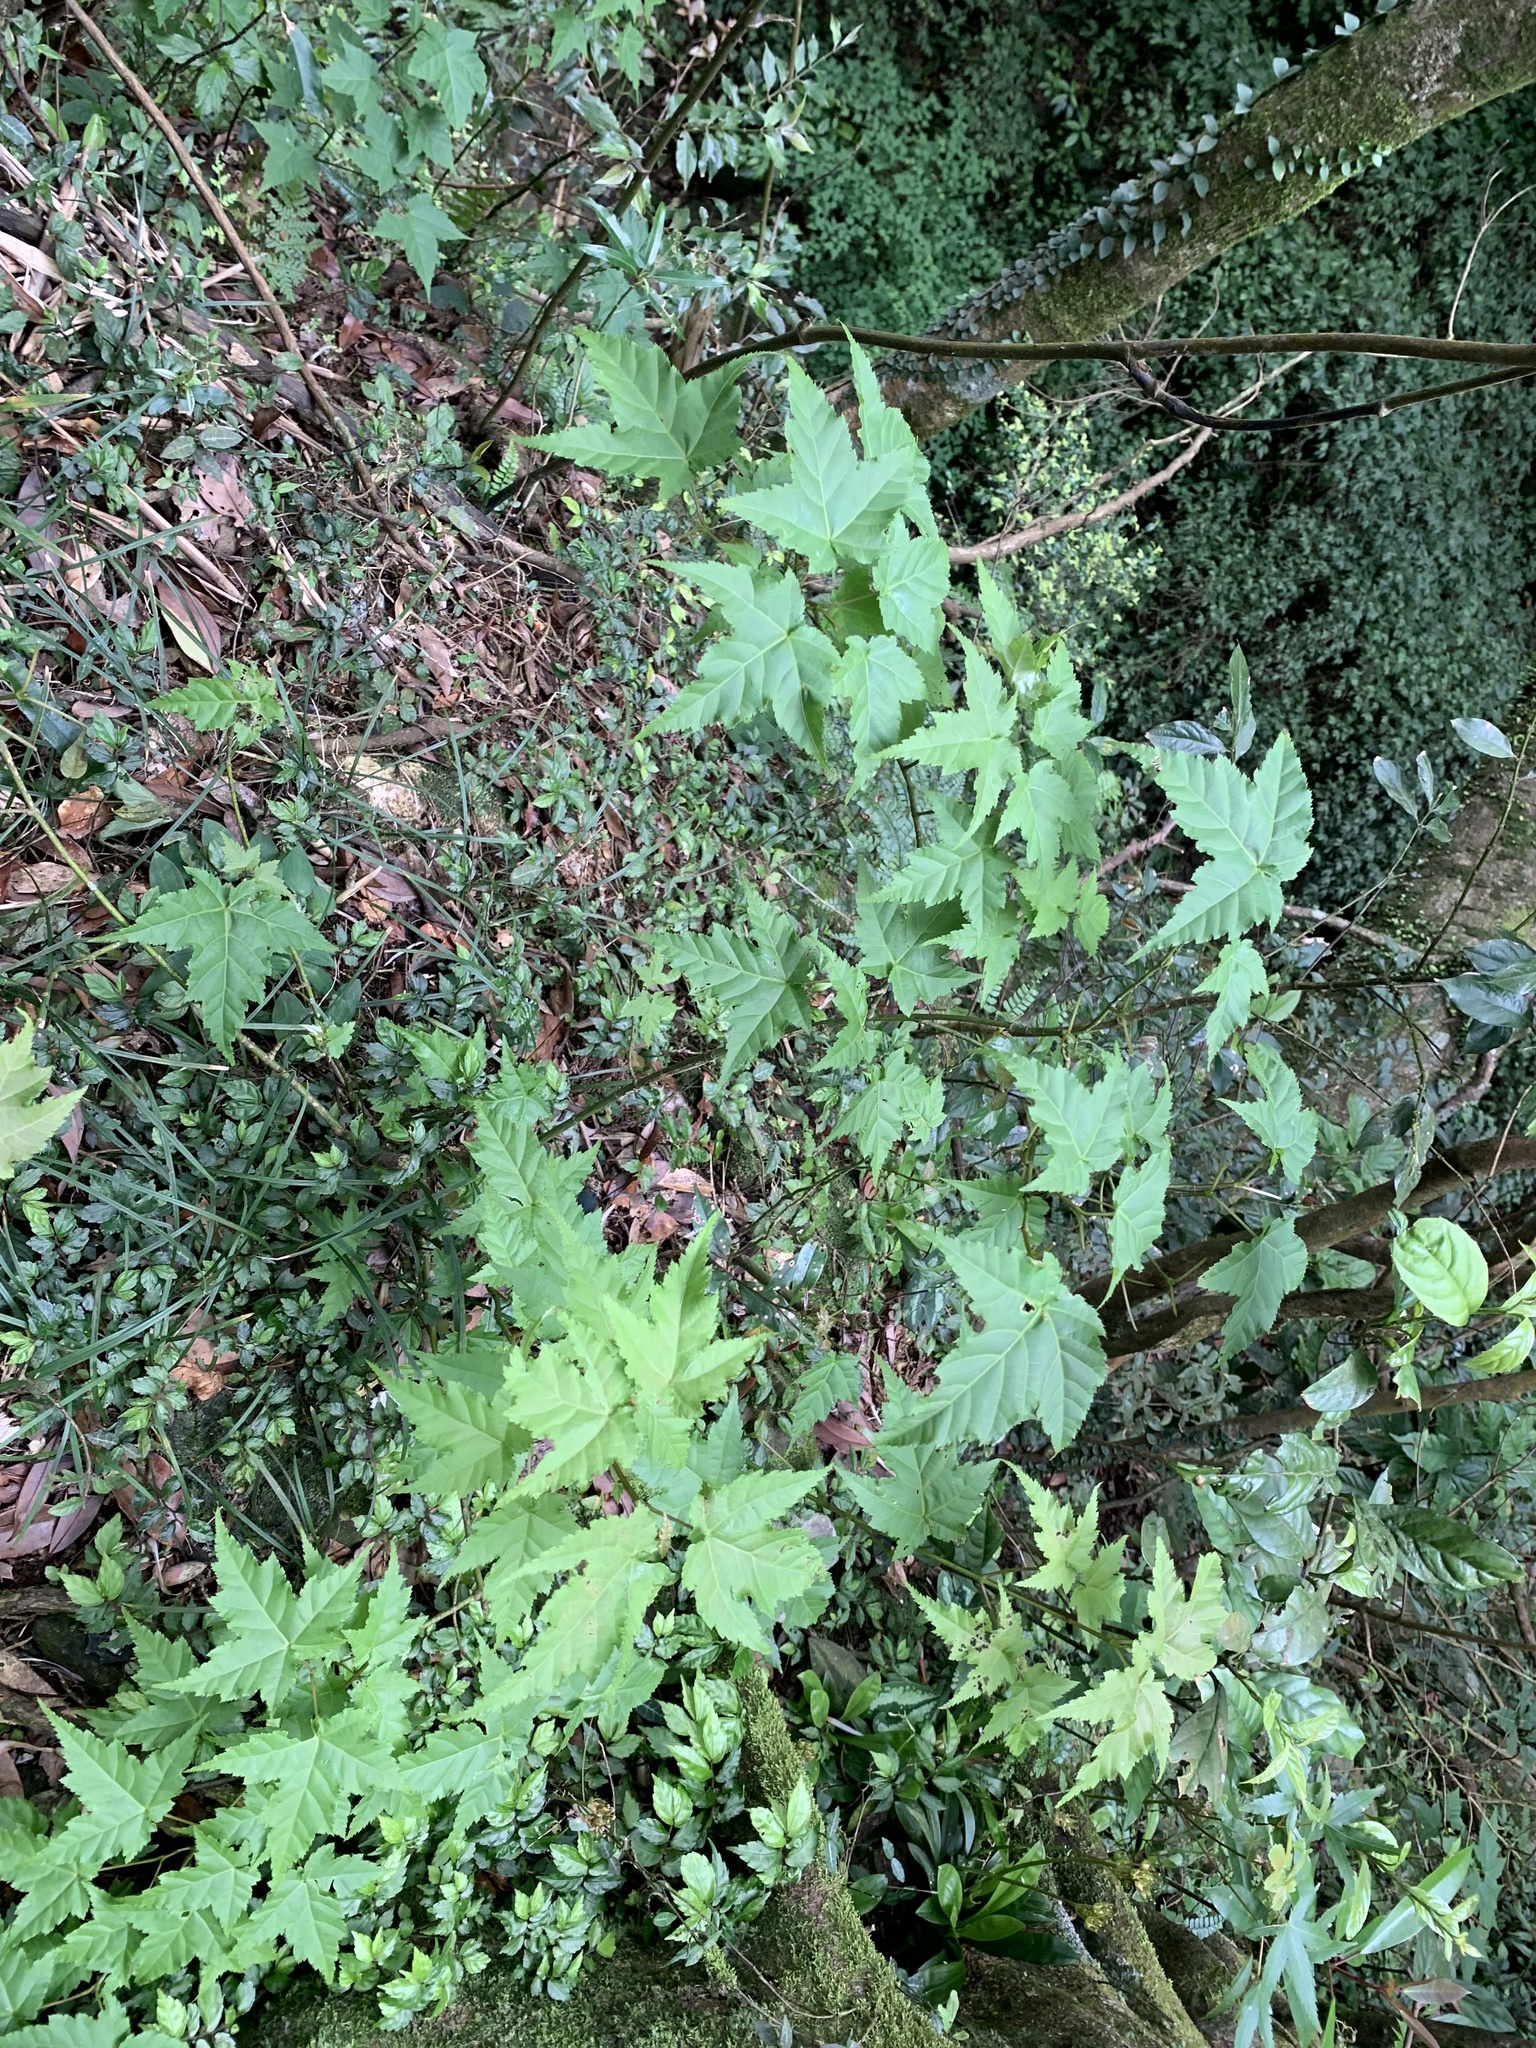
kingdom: Plantae
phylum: Tracheophyta
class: Magnoliopsida
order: Sapindales
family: Sapindaceae
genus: Acer
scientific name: Acer caudatifolium
